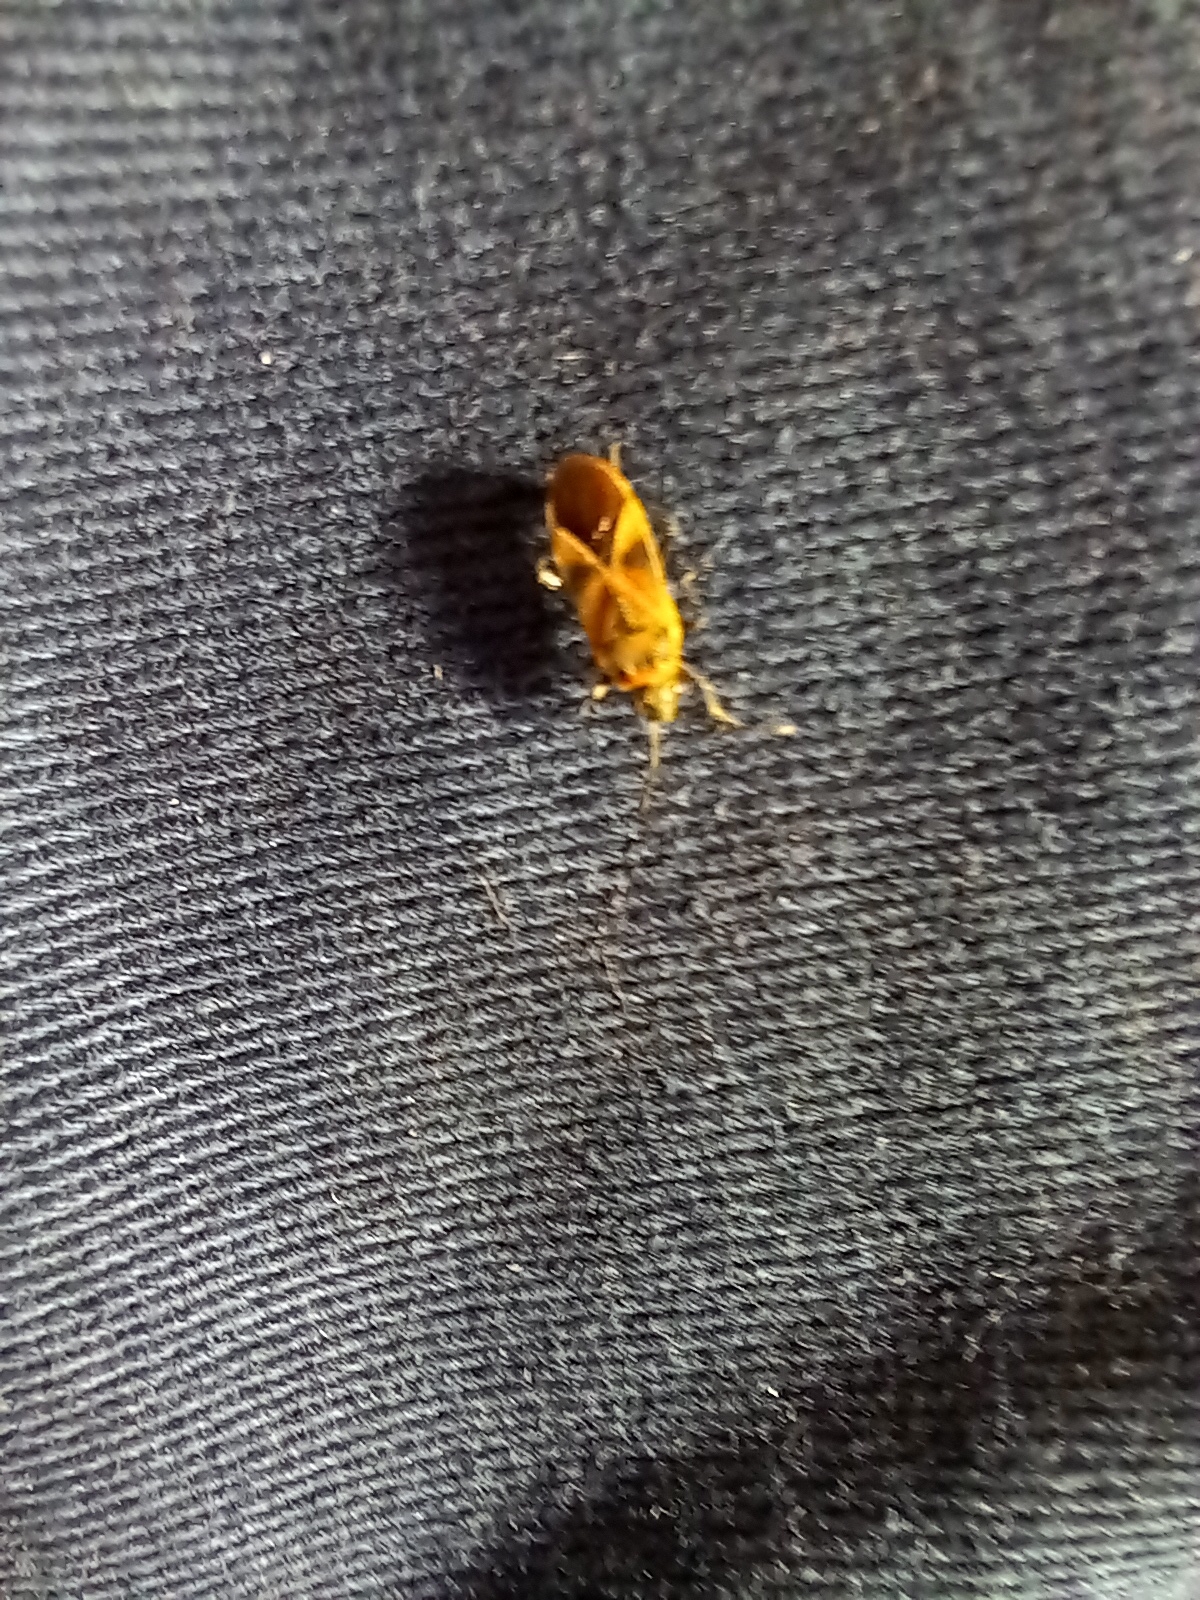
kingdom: Animalia
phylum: Arthropoda
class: Insecta
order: Hemiptera
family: Lygaeidae
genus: Arocatus
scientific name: Arocatus roeselii
